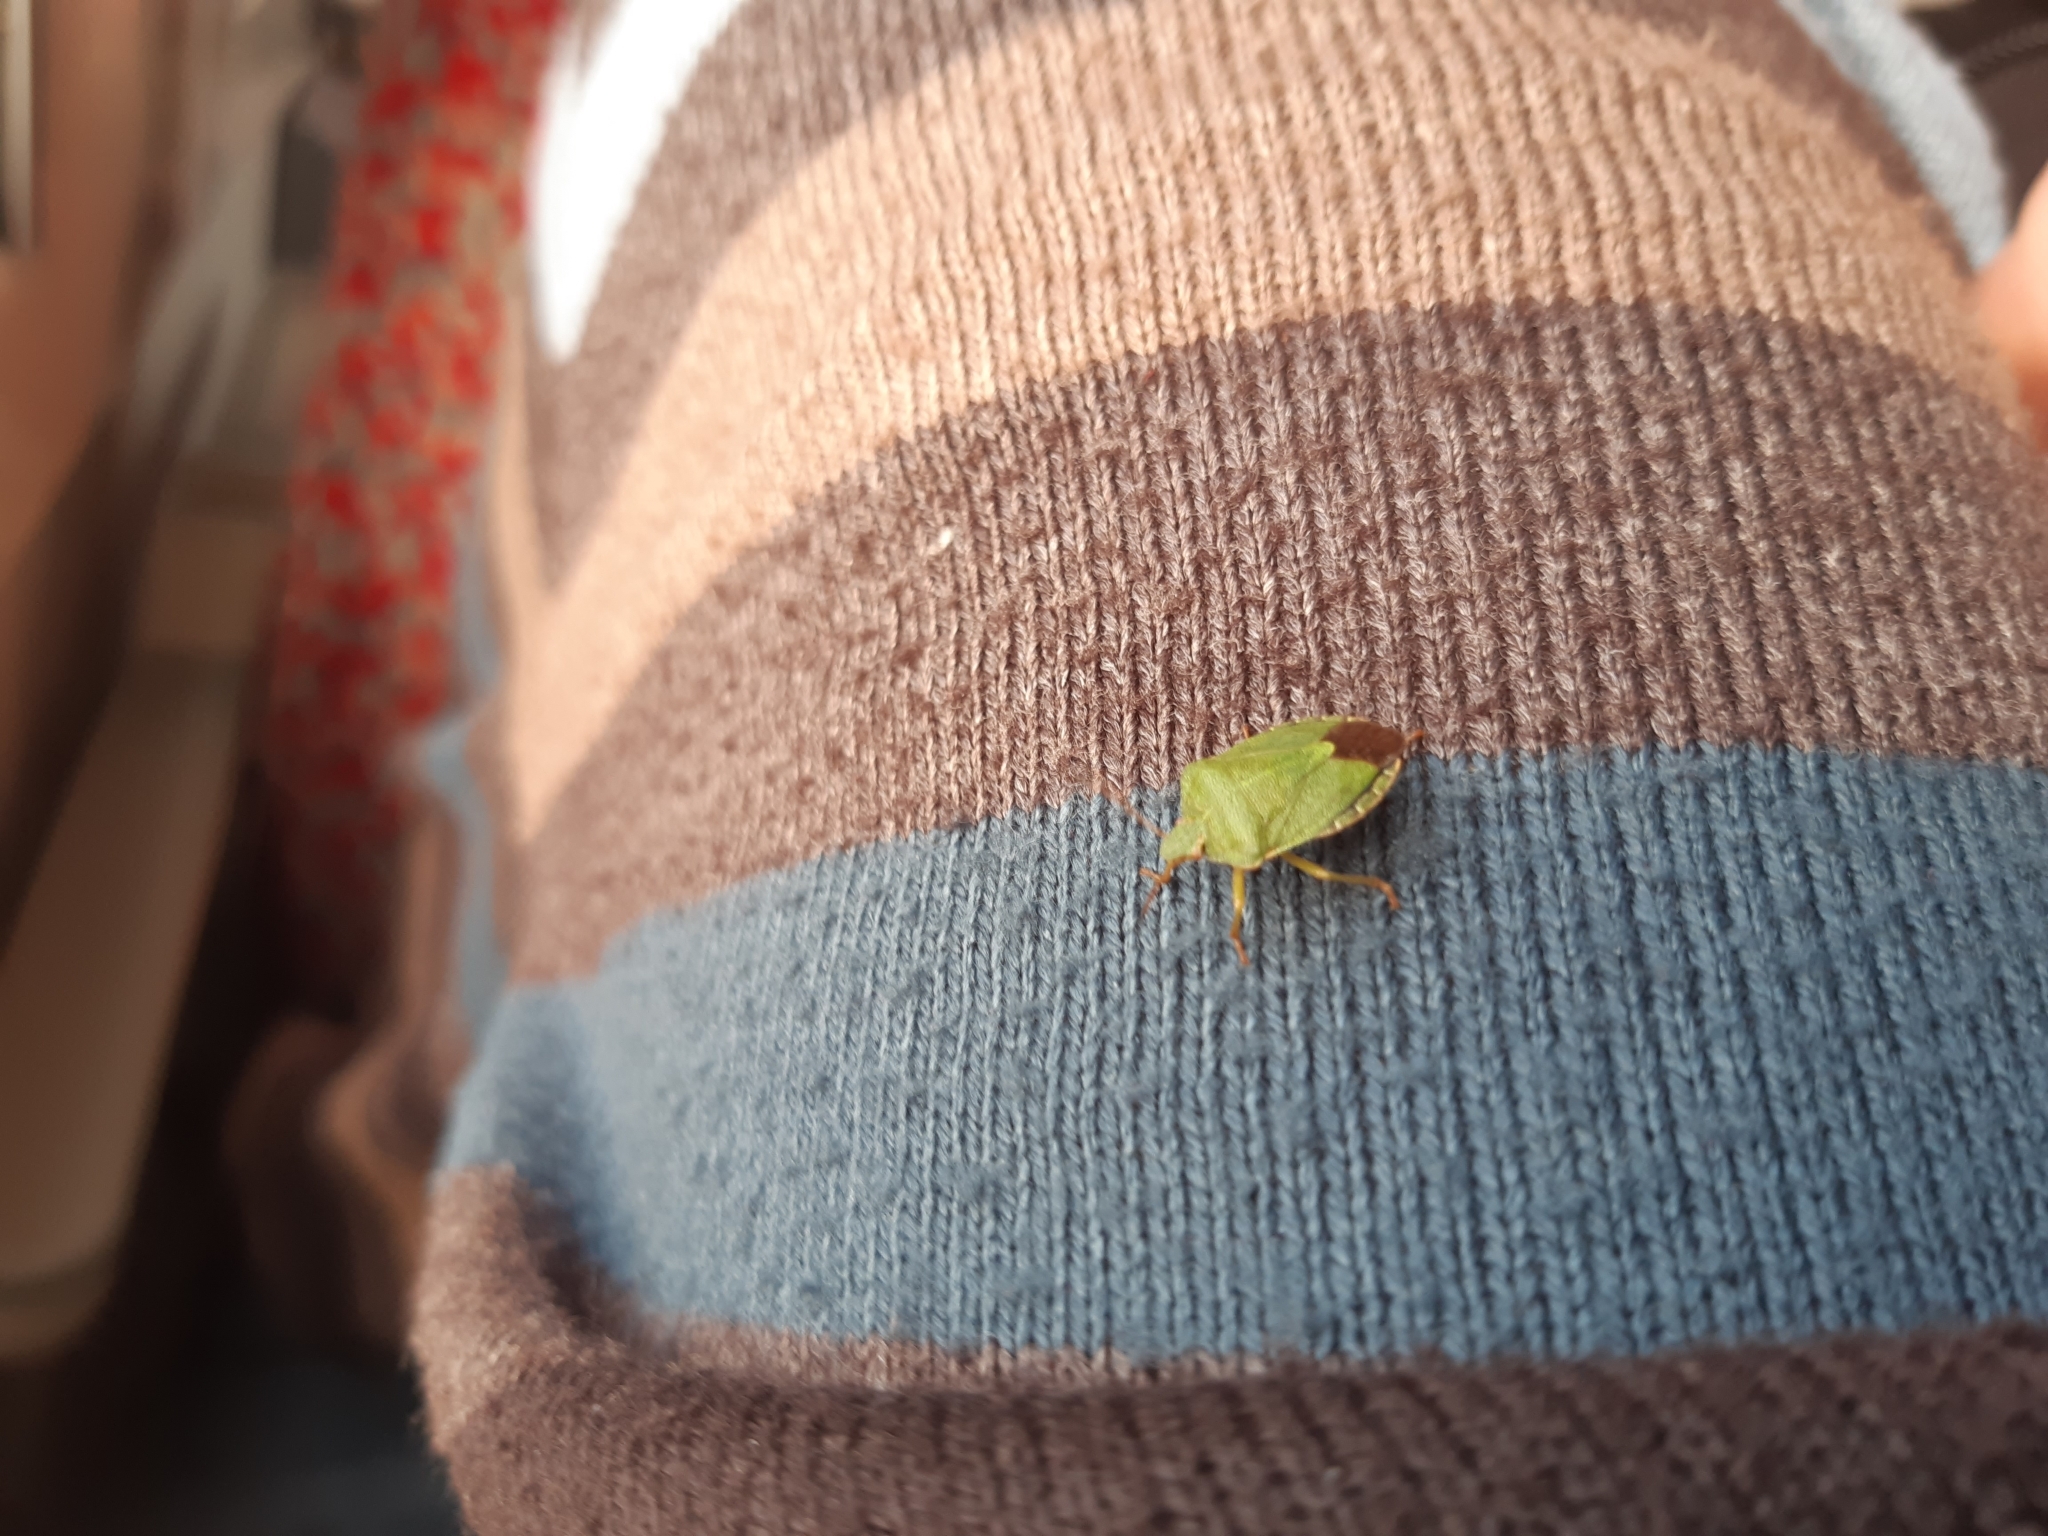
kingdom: Animalia
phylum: Arthropoda
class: Insecta
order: Hemiptera
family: Pentatomidae
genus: Palomena
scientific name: Palomena prasina
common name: Green shieldbug
